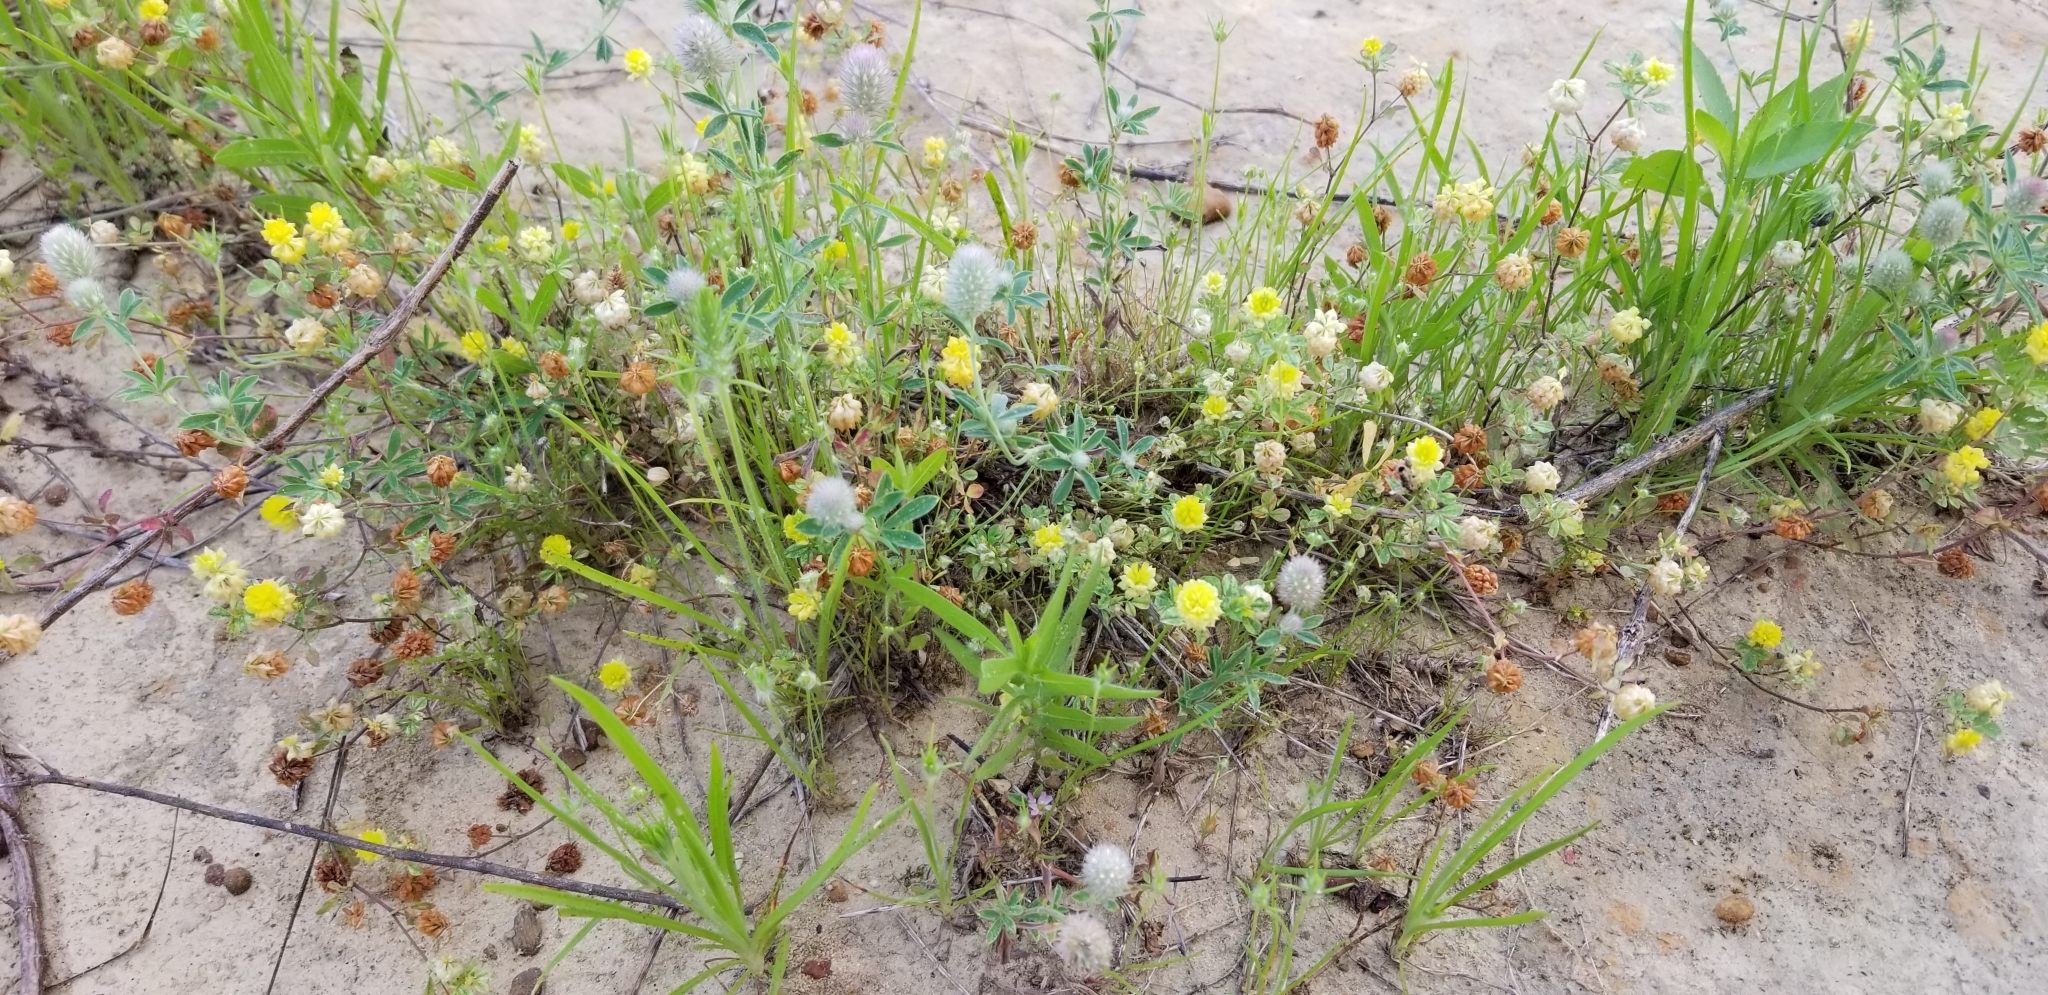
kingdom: Plantae
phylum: Tracheophyta
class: Magnoliopsida
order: Fabales
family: Fabaceae
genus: Trifolium
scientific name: Trifolium campestre
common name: Field clover
